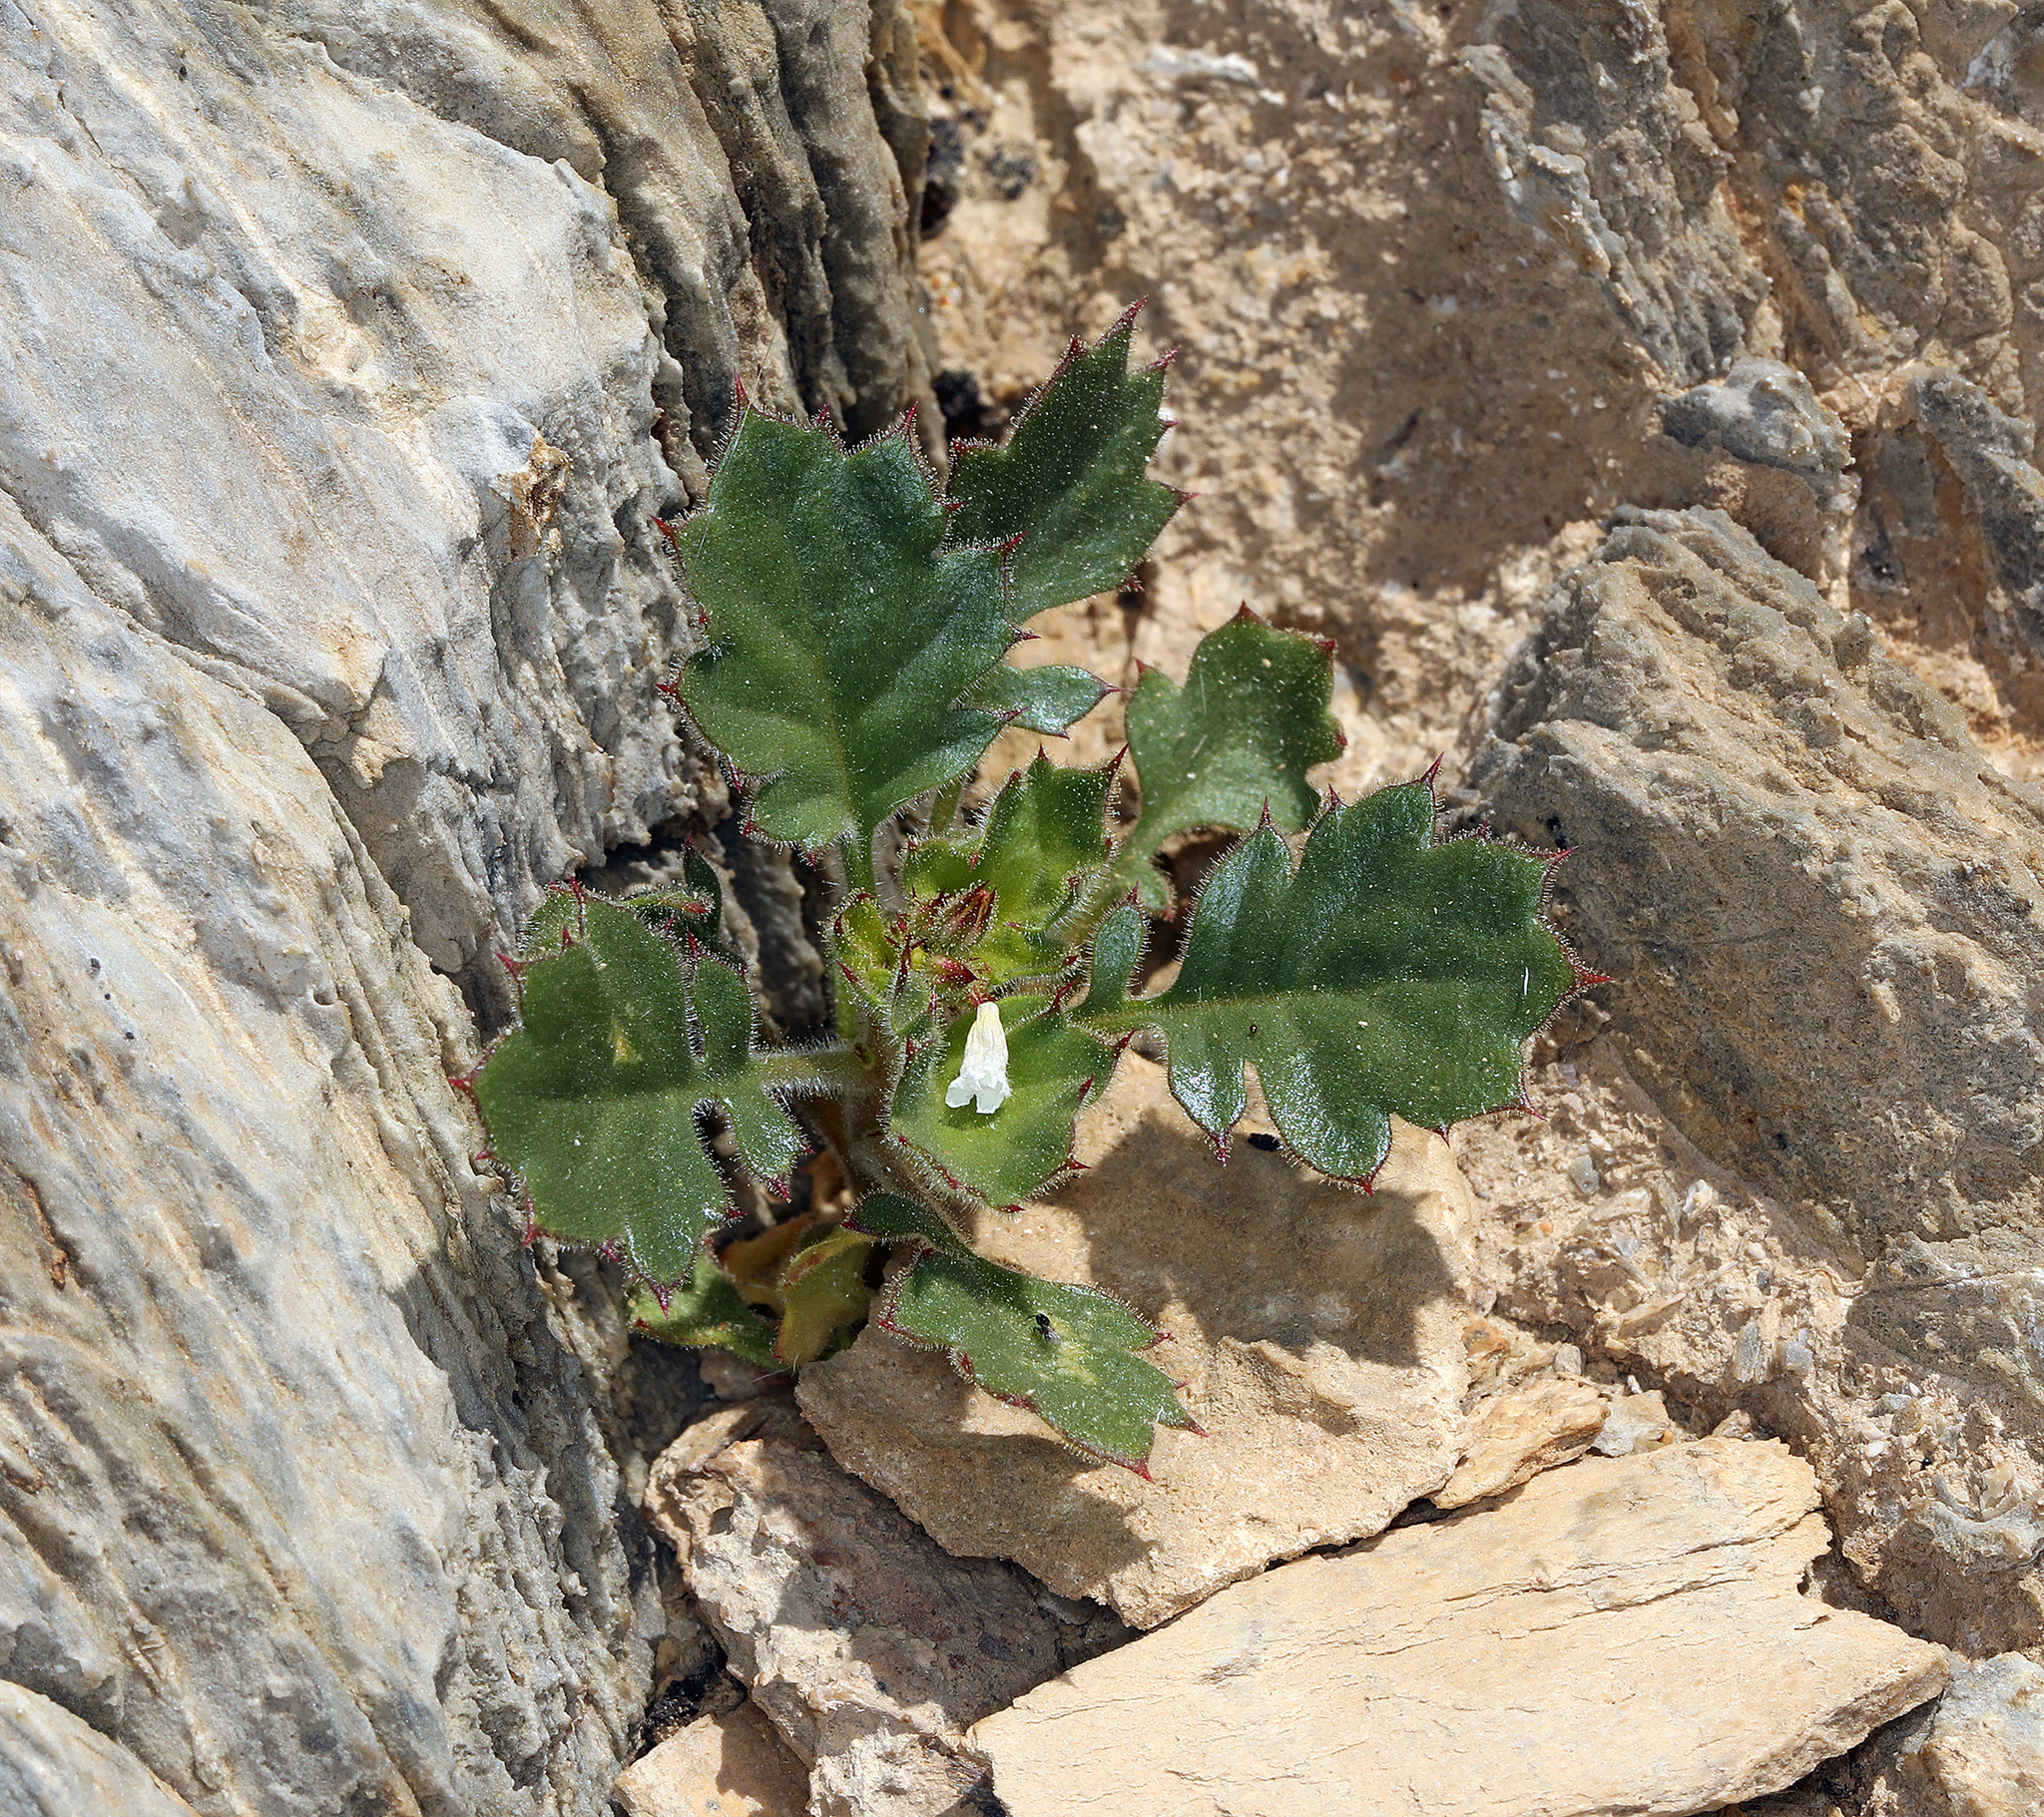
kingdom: Plantae
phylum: Tracheophyta
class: Magnoliopsida
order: Ericales
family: Polemoniaceae
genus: Aliciella
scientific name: Aliciella latifolia
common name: Broad-leaf gilia
